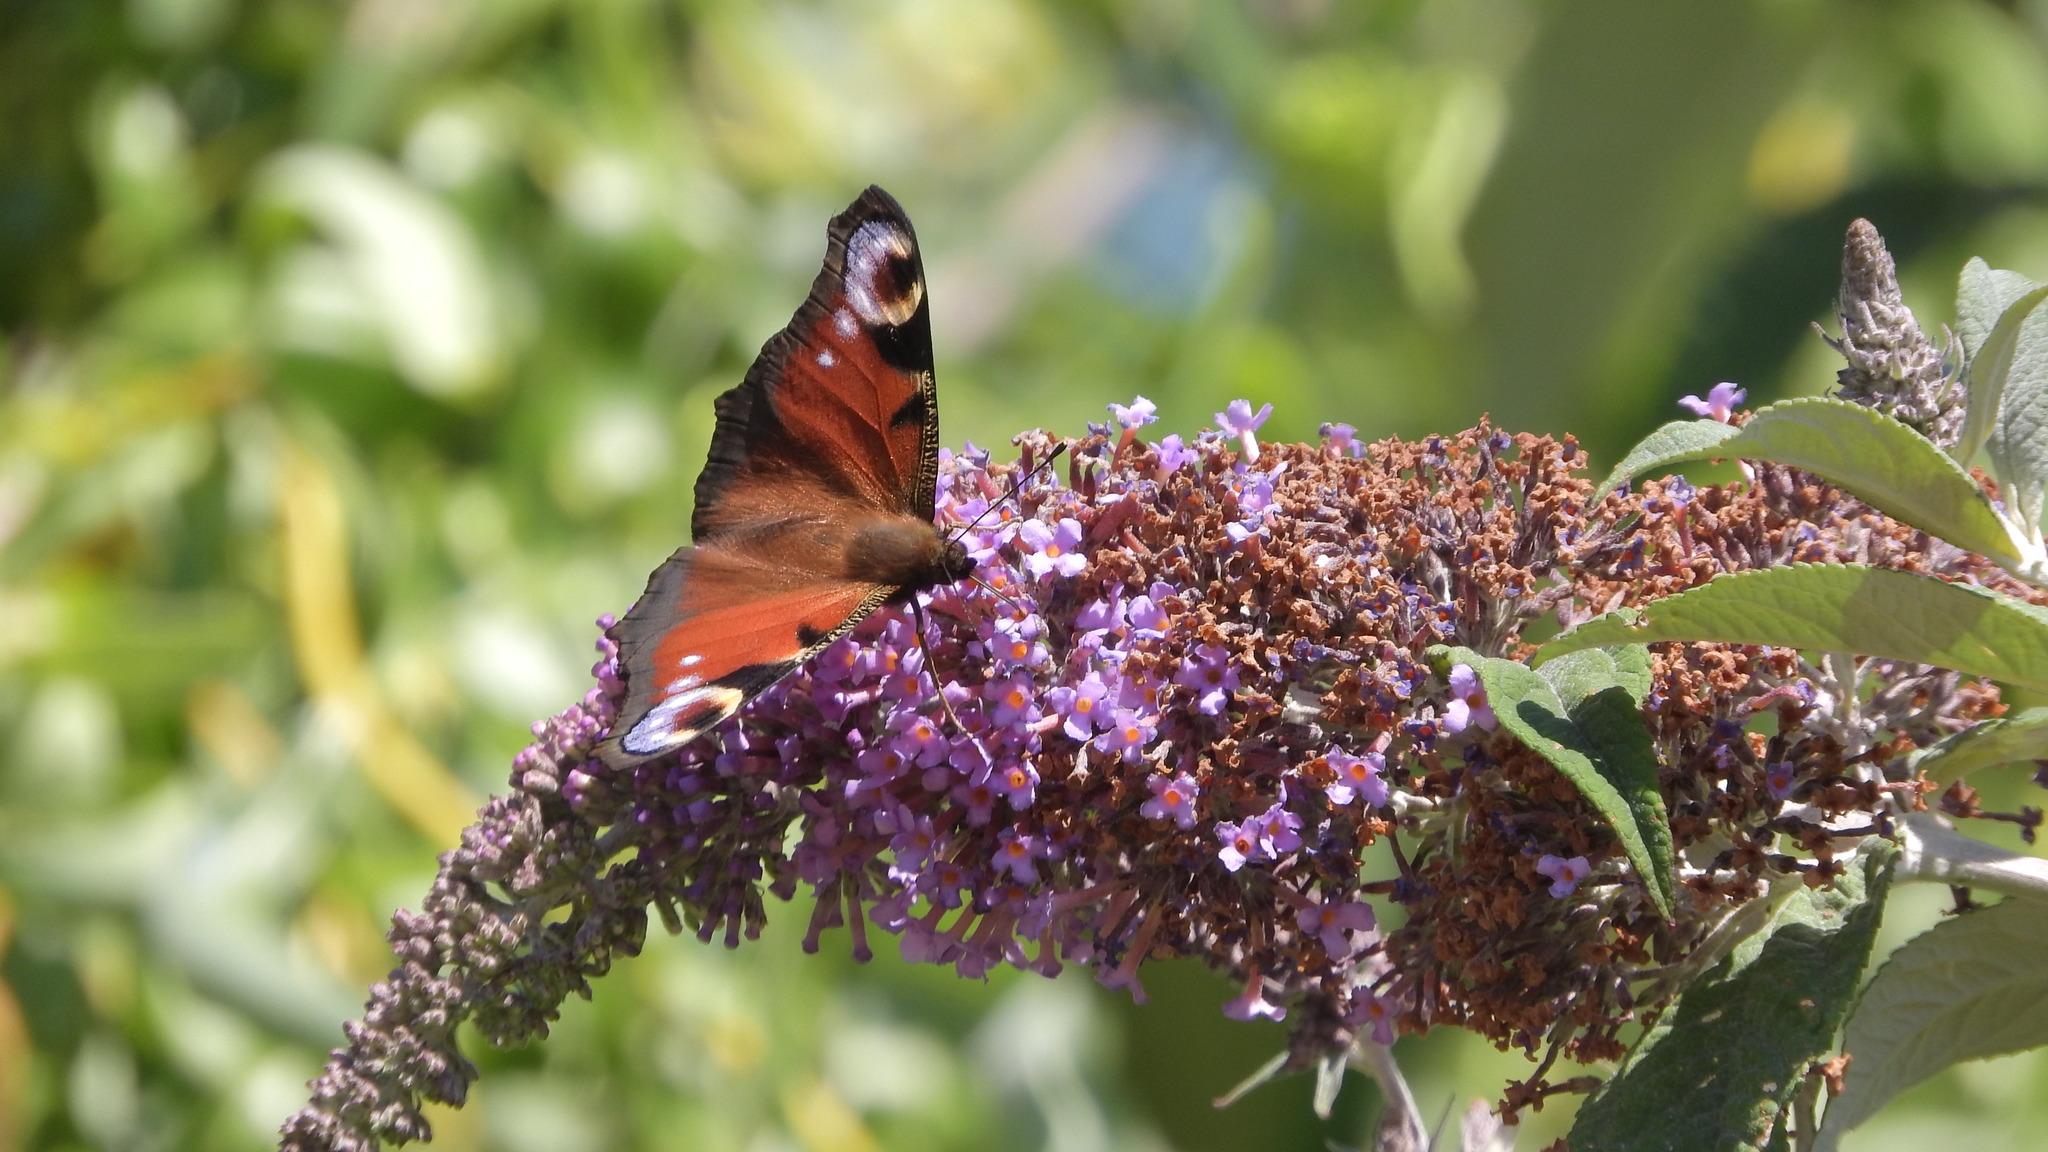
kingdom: Animalia
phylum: Arthropoda
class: Insecta
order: Lepidoptera
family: Nymphalidae
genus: Aglais
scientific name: Aglais io
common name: Peacock
